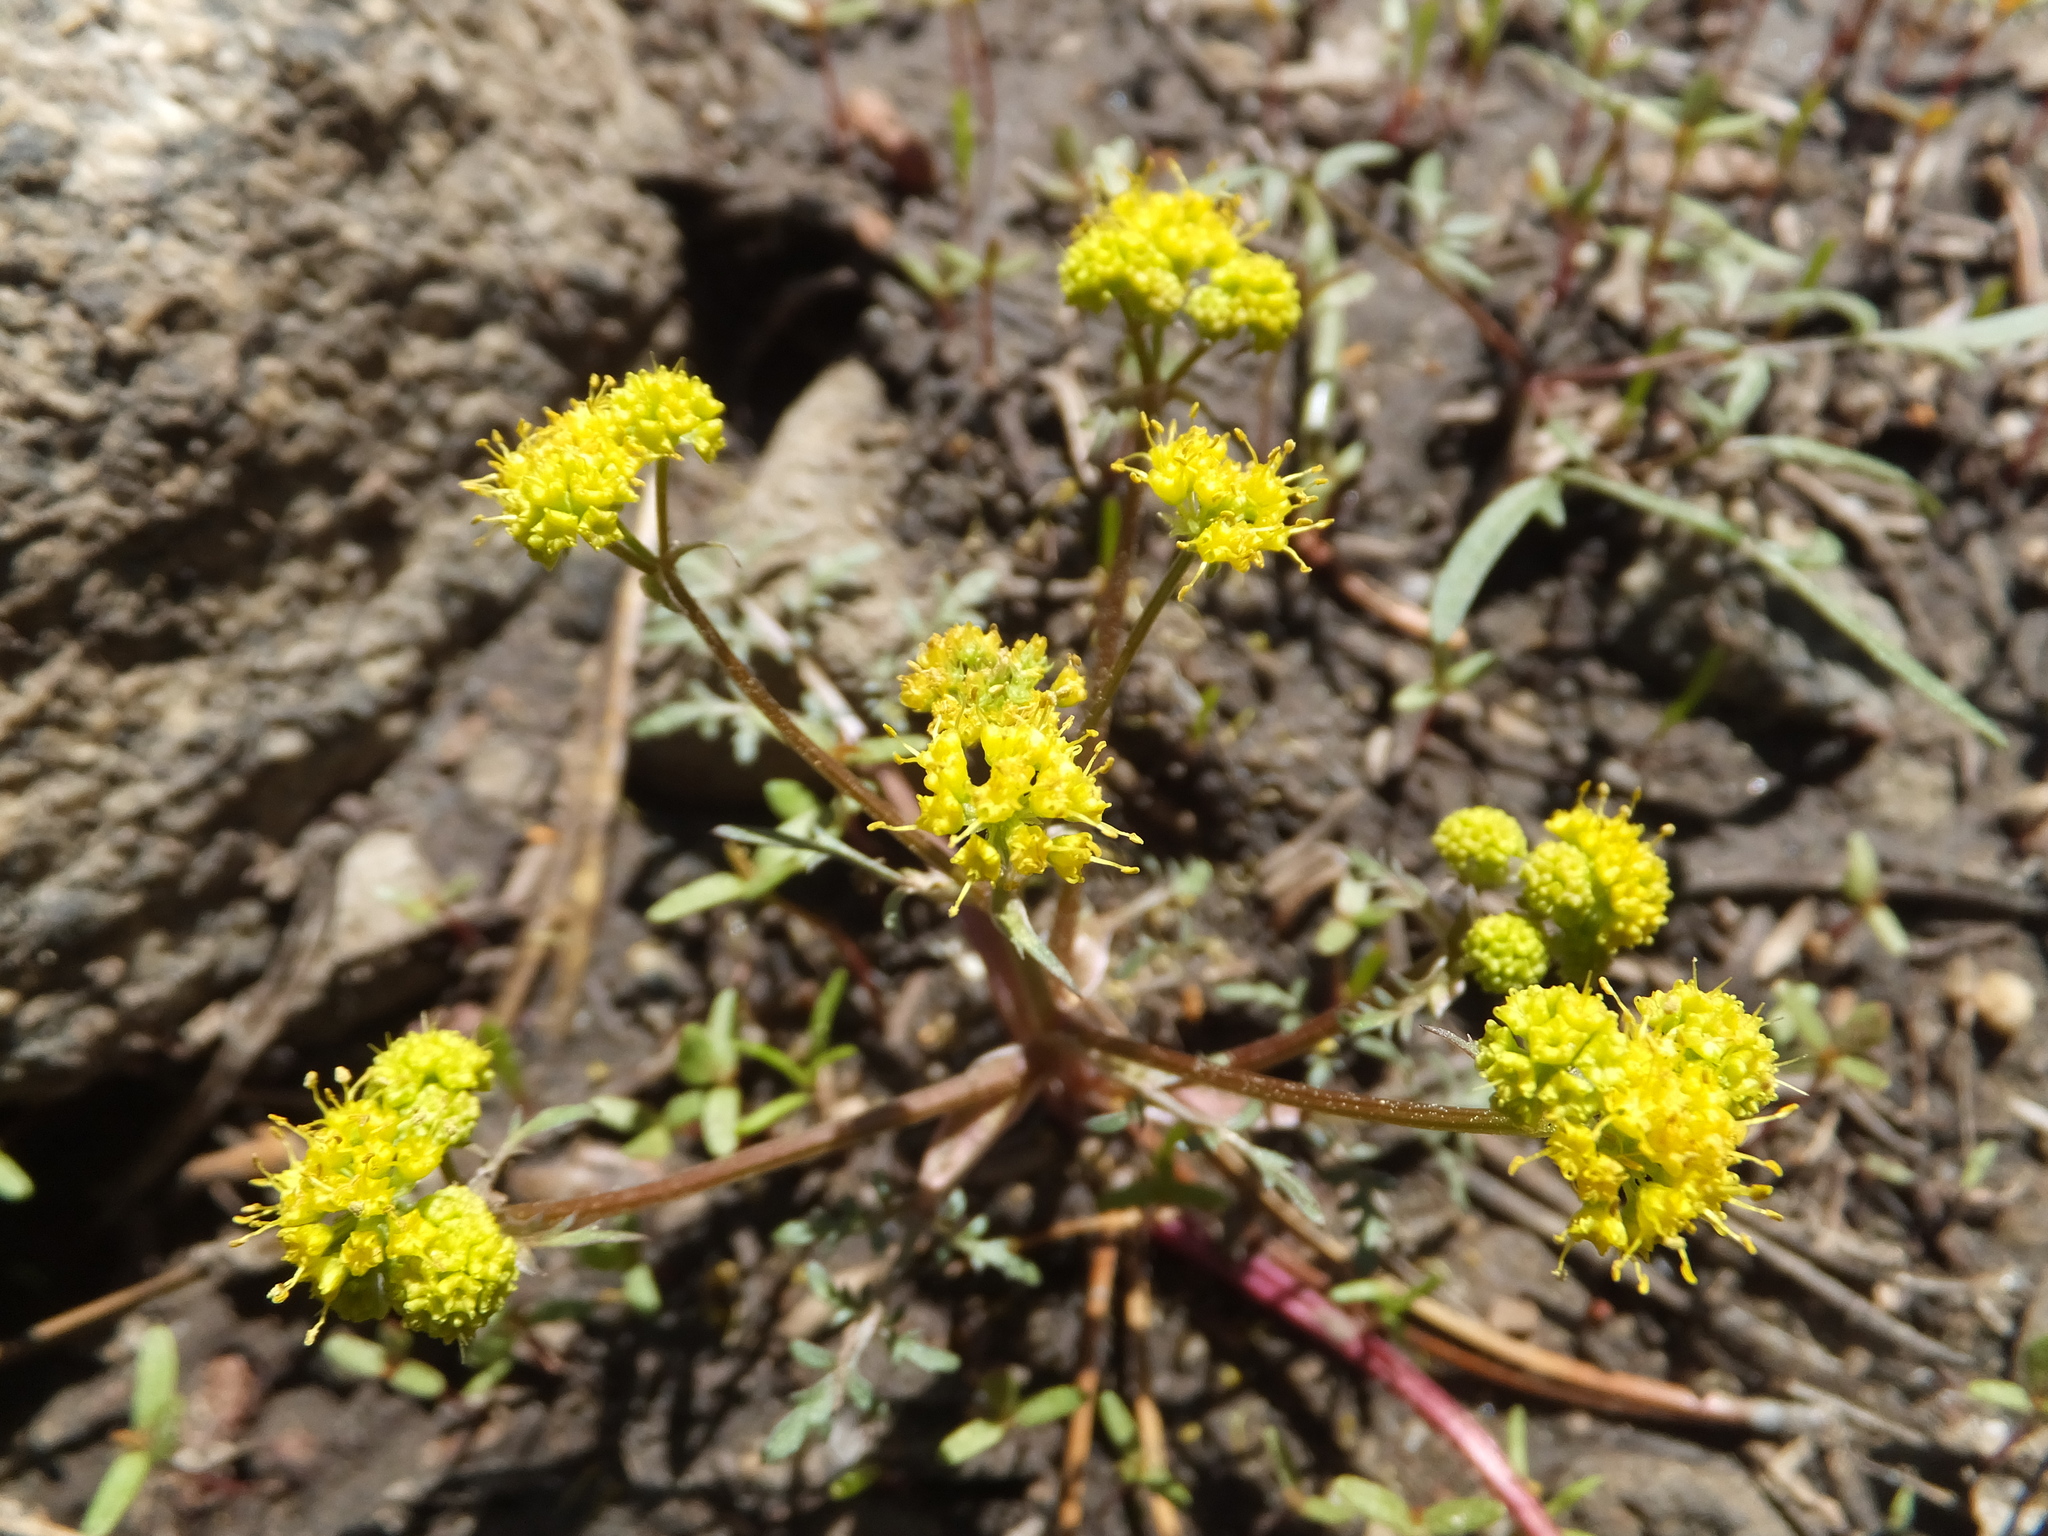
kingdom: Plantae
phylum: Tracheophyta
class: Magnoliopsida
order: Apiales
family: Apiaceae
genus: Sanicula
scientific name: Sanicula tuberosa
